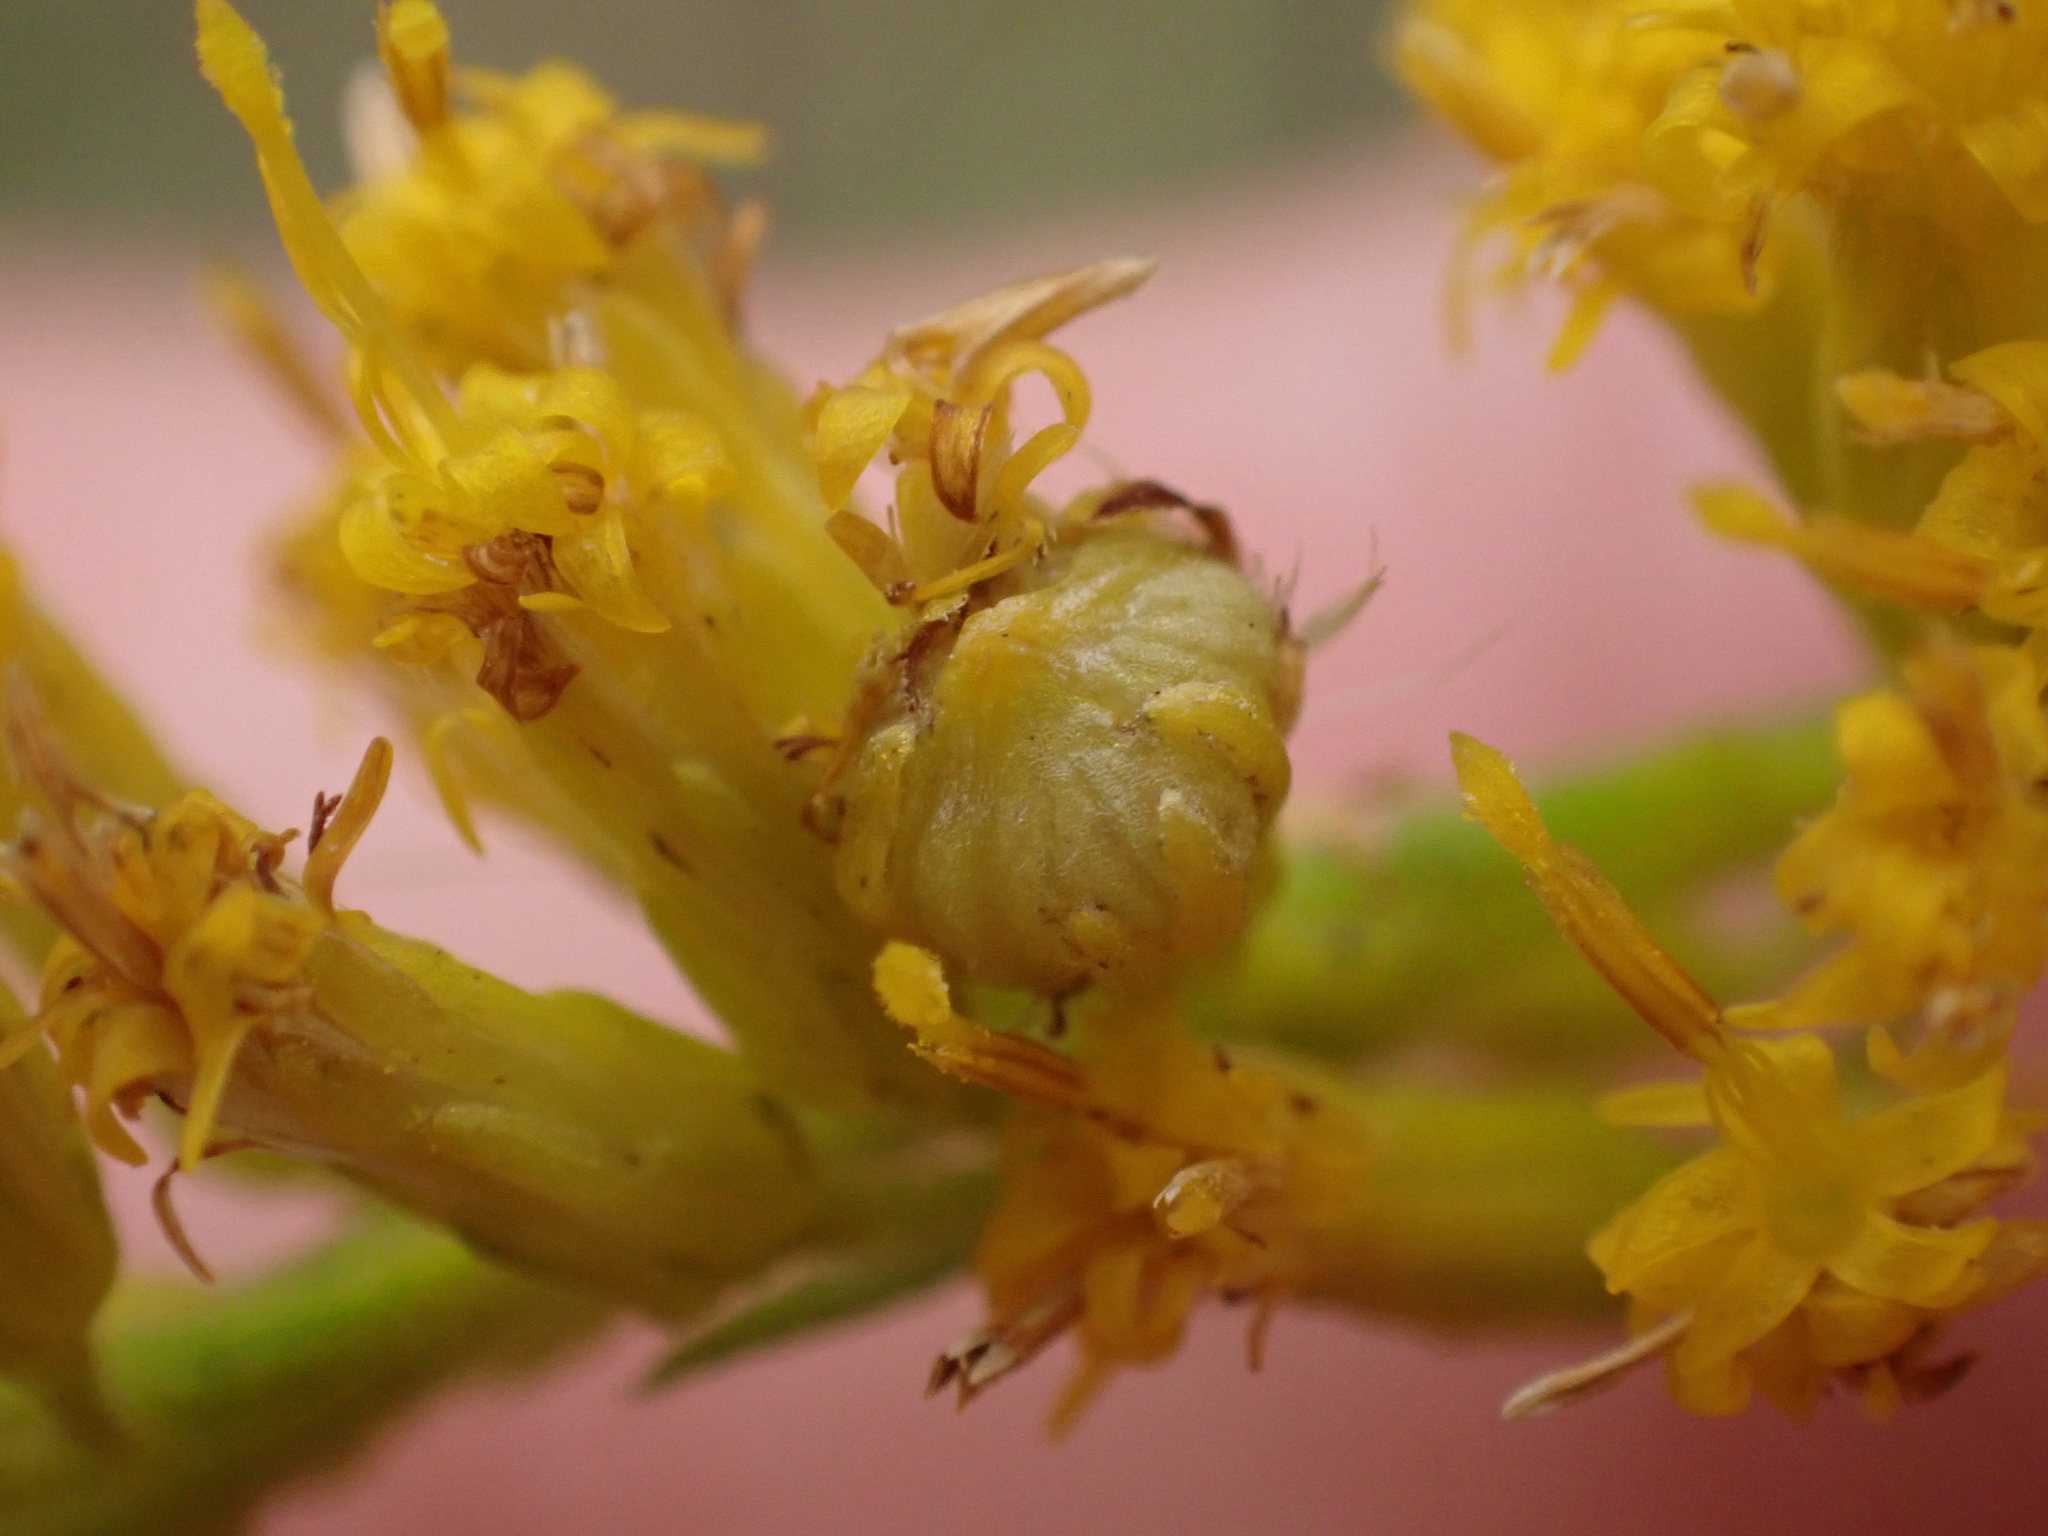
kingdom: Animalia
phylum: Arthropoda
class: Insecta
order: Diptera
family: Cecidomyiidae
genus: Schizomyia
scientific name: Schizomyia racemicola
